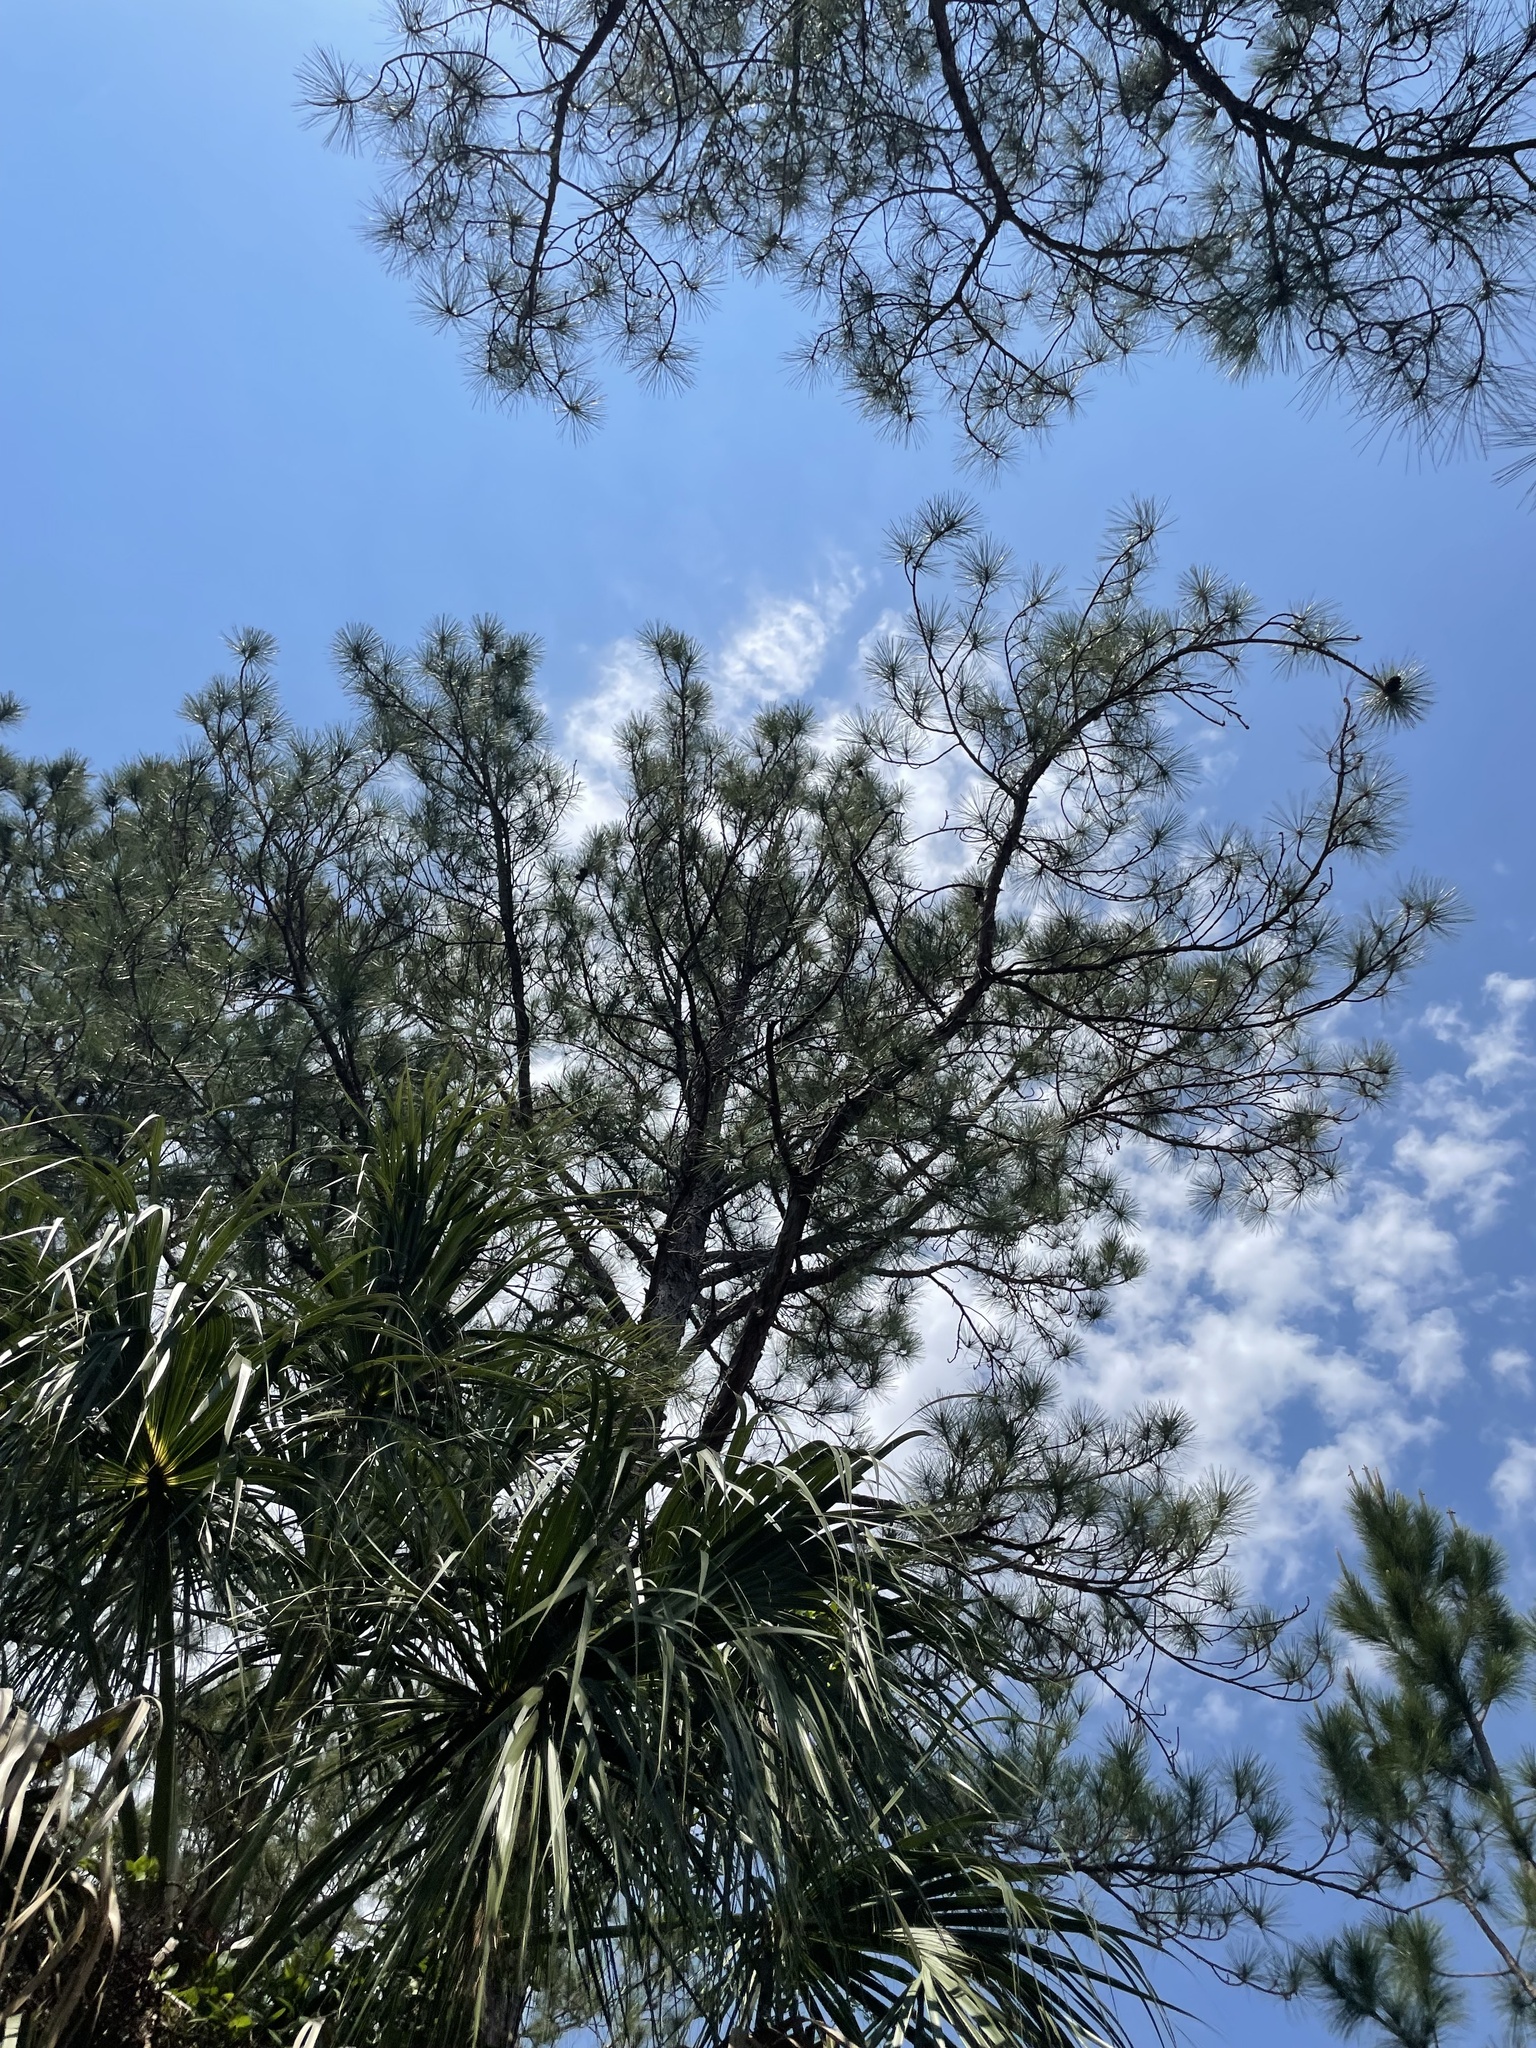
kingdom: Plantae
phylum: Tracheophyta
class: Pinopsida
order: Pinales
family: Pinaceae
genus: Pinus
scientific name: Pinus elliottii
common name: Slash pine
